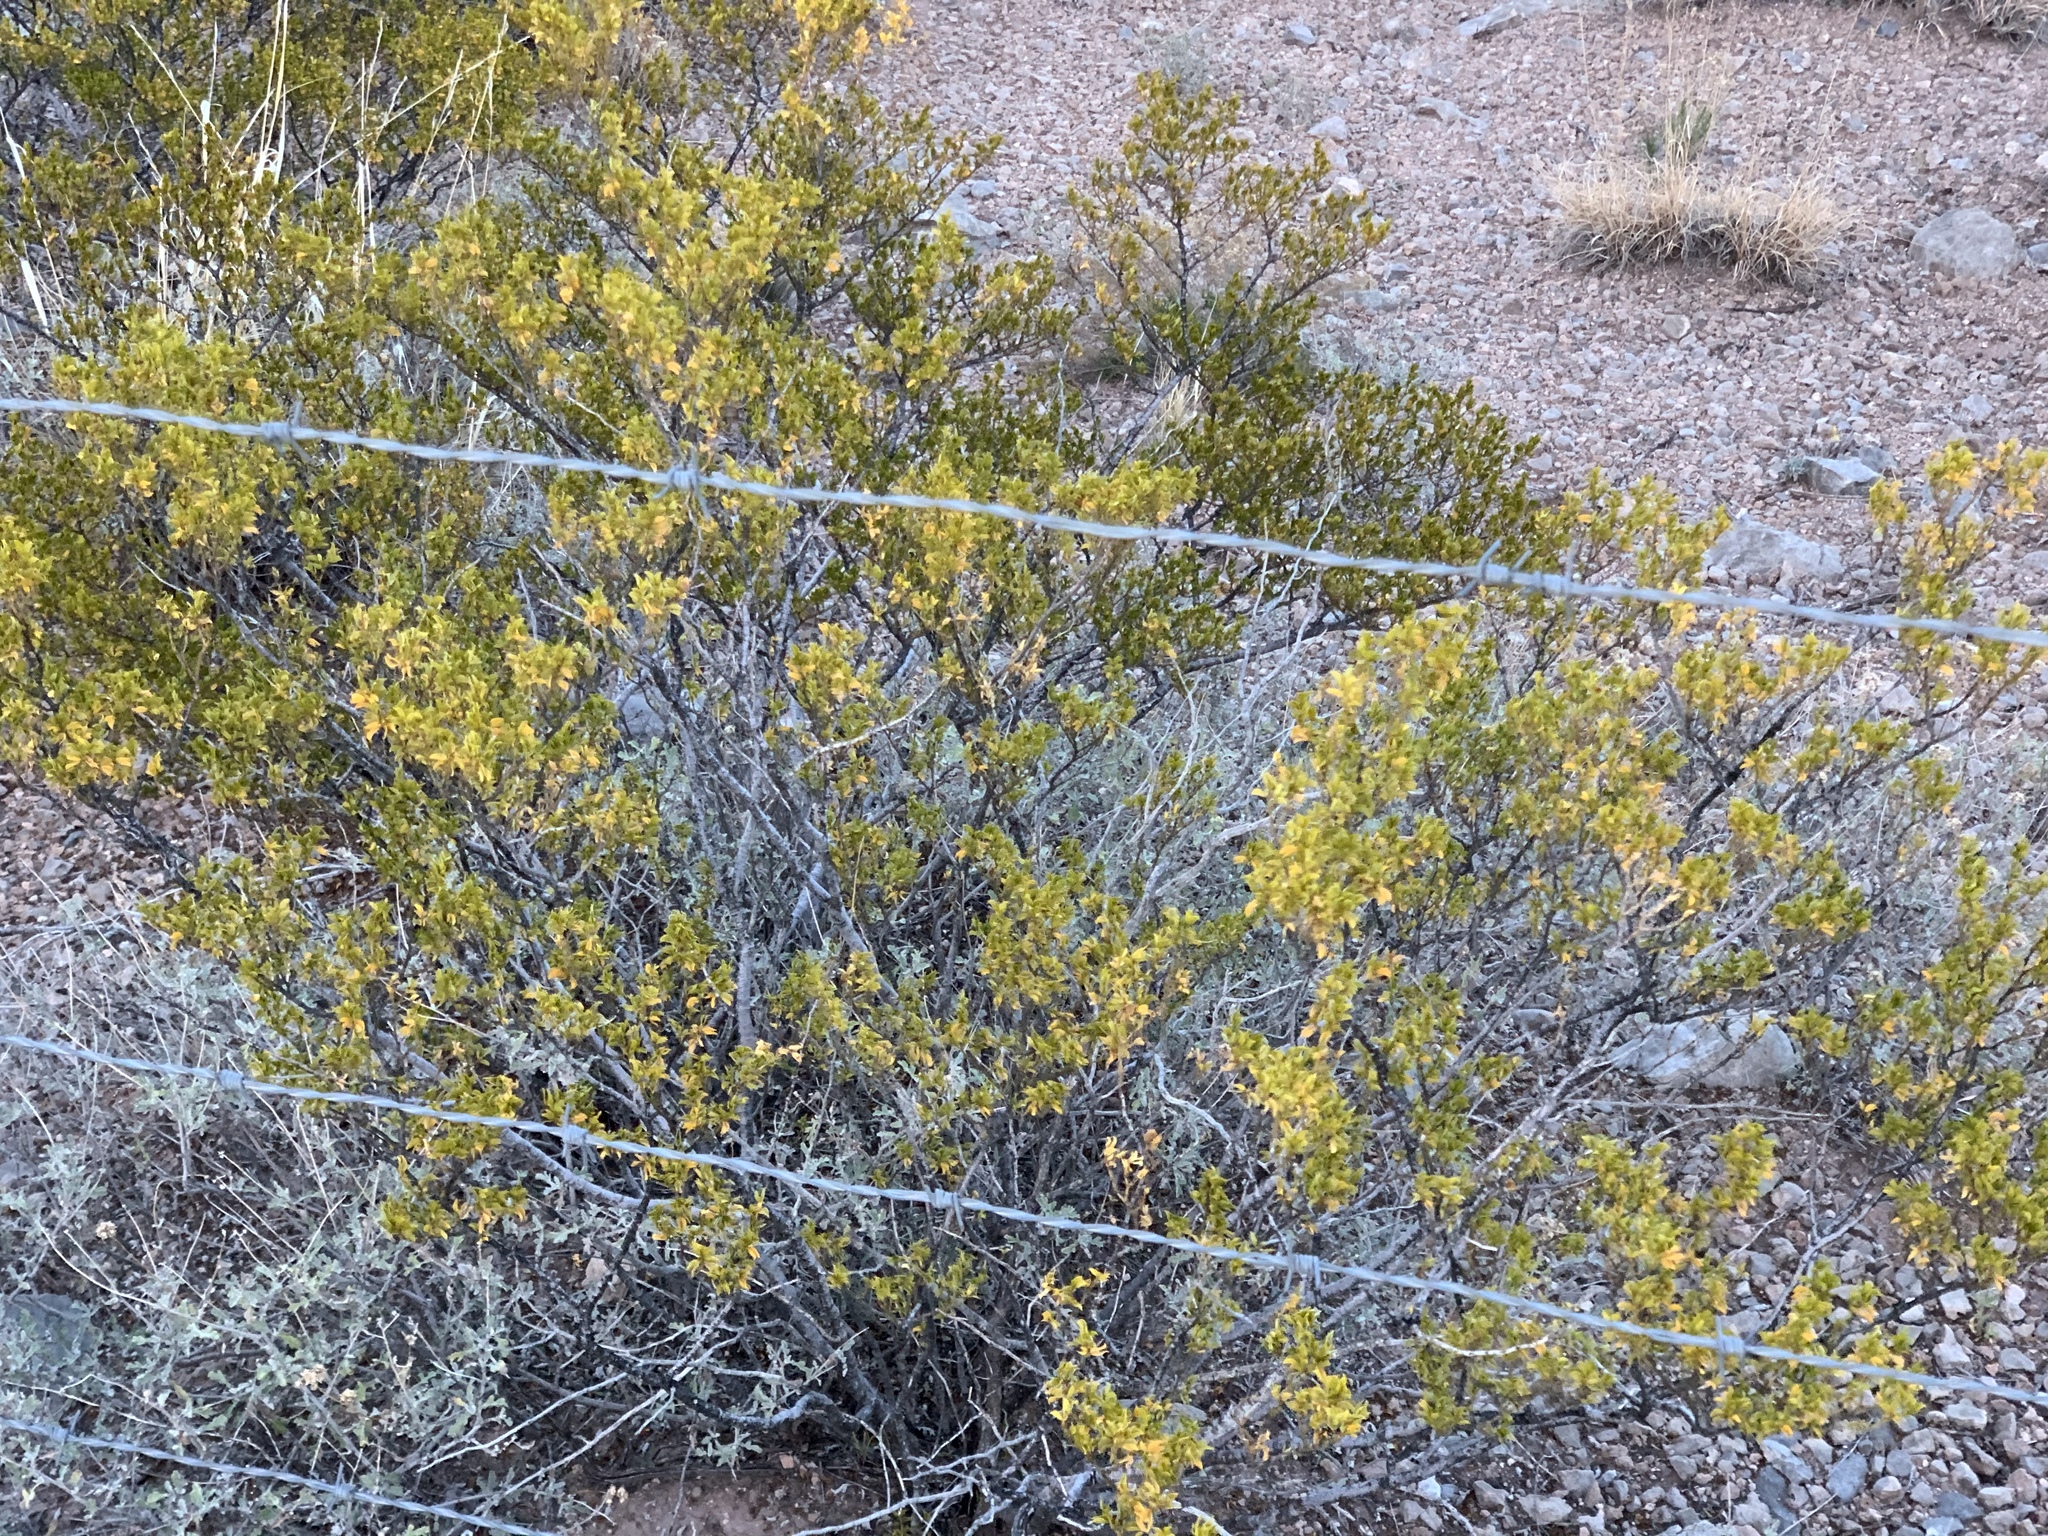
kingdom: Plantae
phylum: Tracheophyta
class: Magnoliopsida
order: Zygophyllales
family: Zygophyllaceae
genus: Larrea
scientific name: Larrea tridentata
